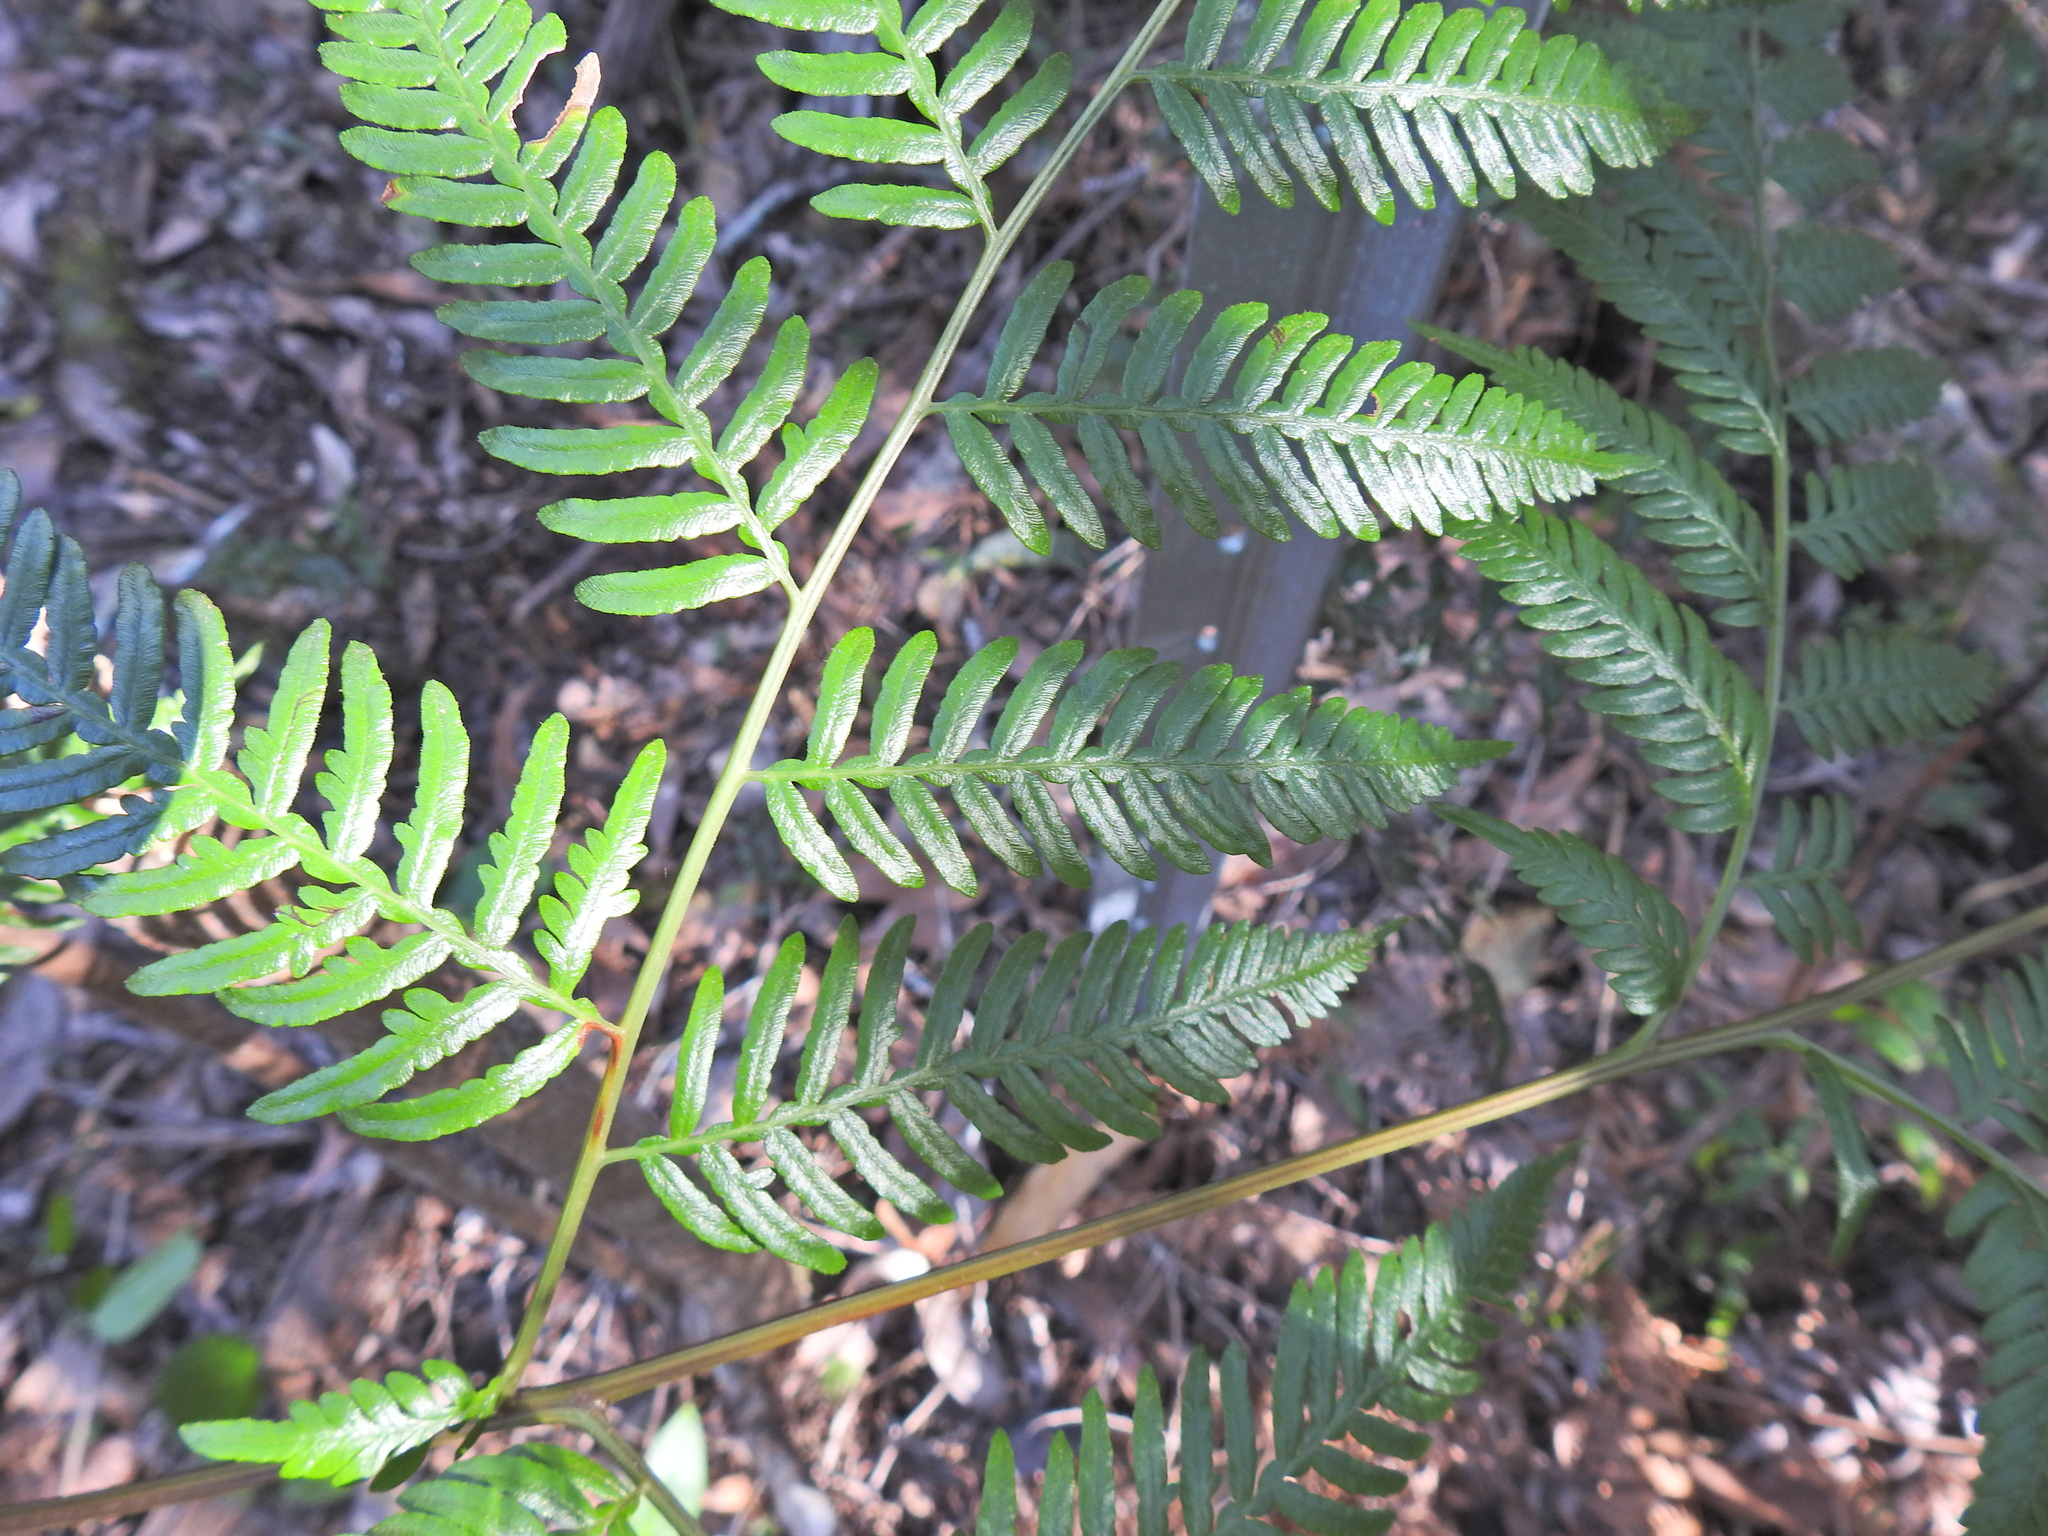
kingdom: Plantae
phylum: Tracheophyta
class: Polypodiopsida
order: Polypodiales
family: Dennstaedtiaceae
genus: Pteridium
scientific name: Pteridium esculentum
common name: Bracken fern
